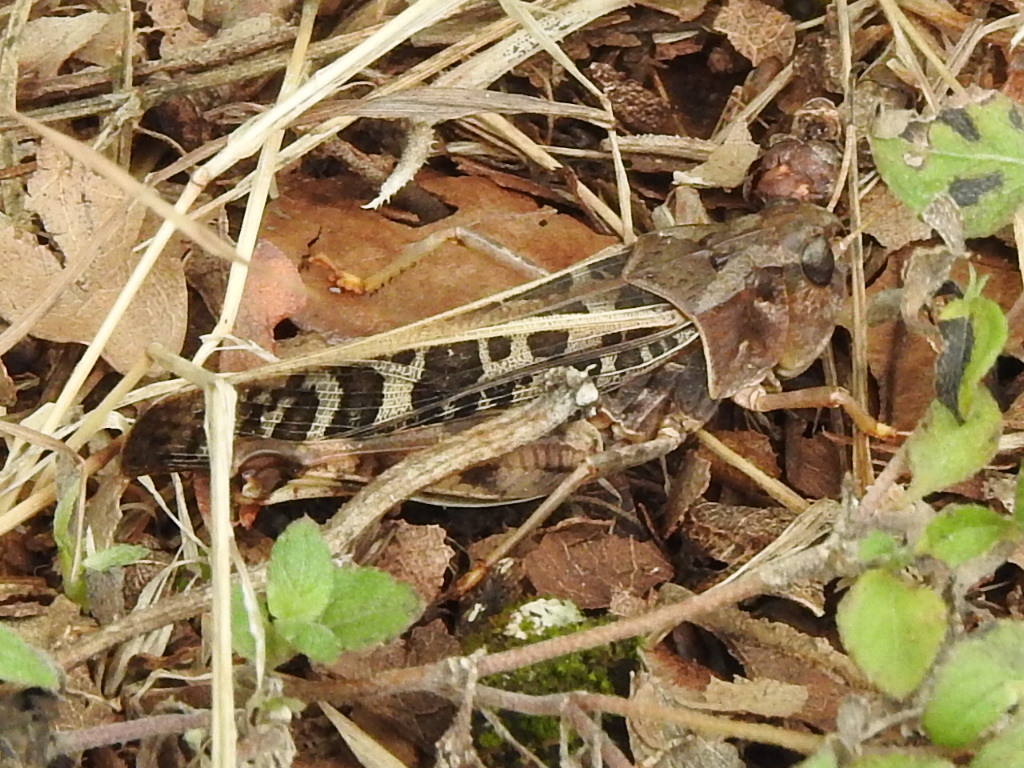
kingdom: Animalia
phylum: Arthropoda
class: Insecta
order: Orthoptera
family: Acrididae
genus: Hippiscus
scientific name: Hippiscus ocelote
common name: Wrinkled grasshopper
